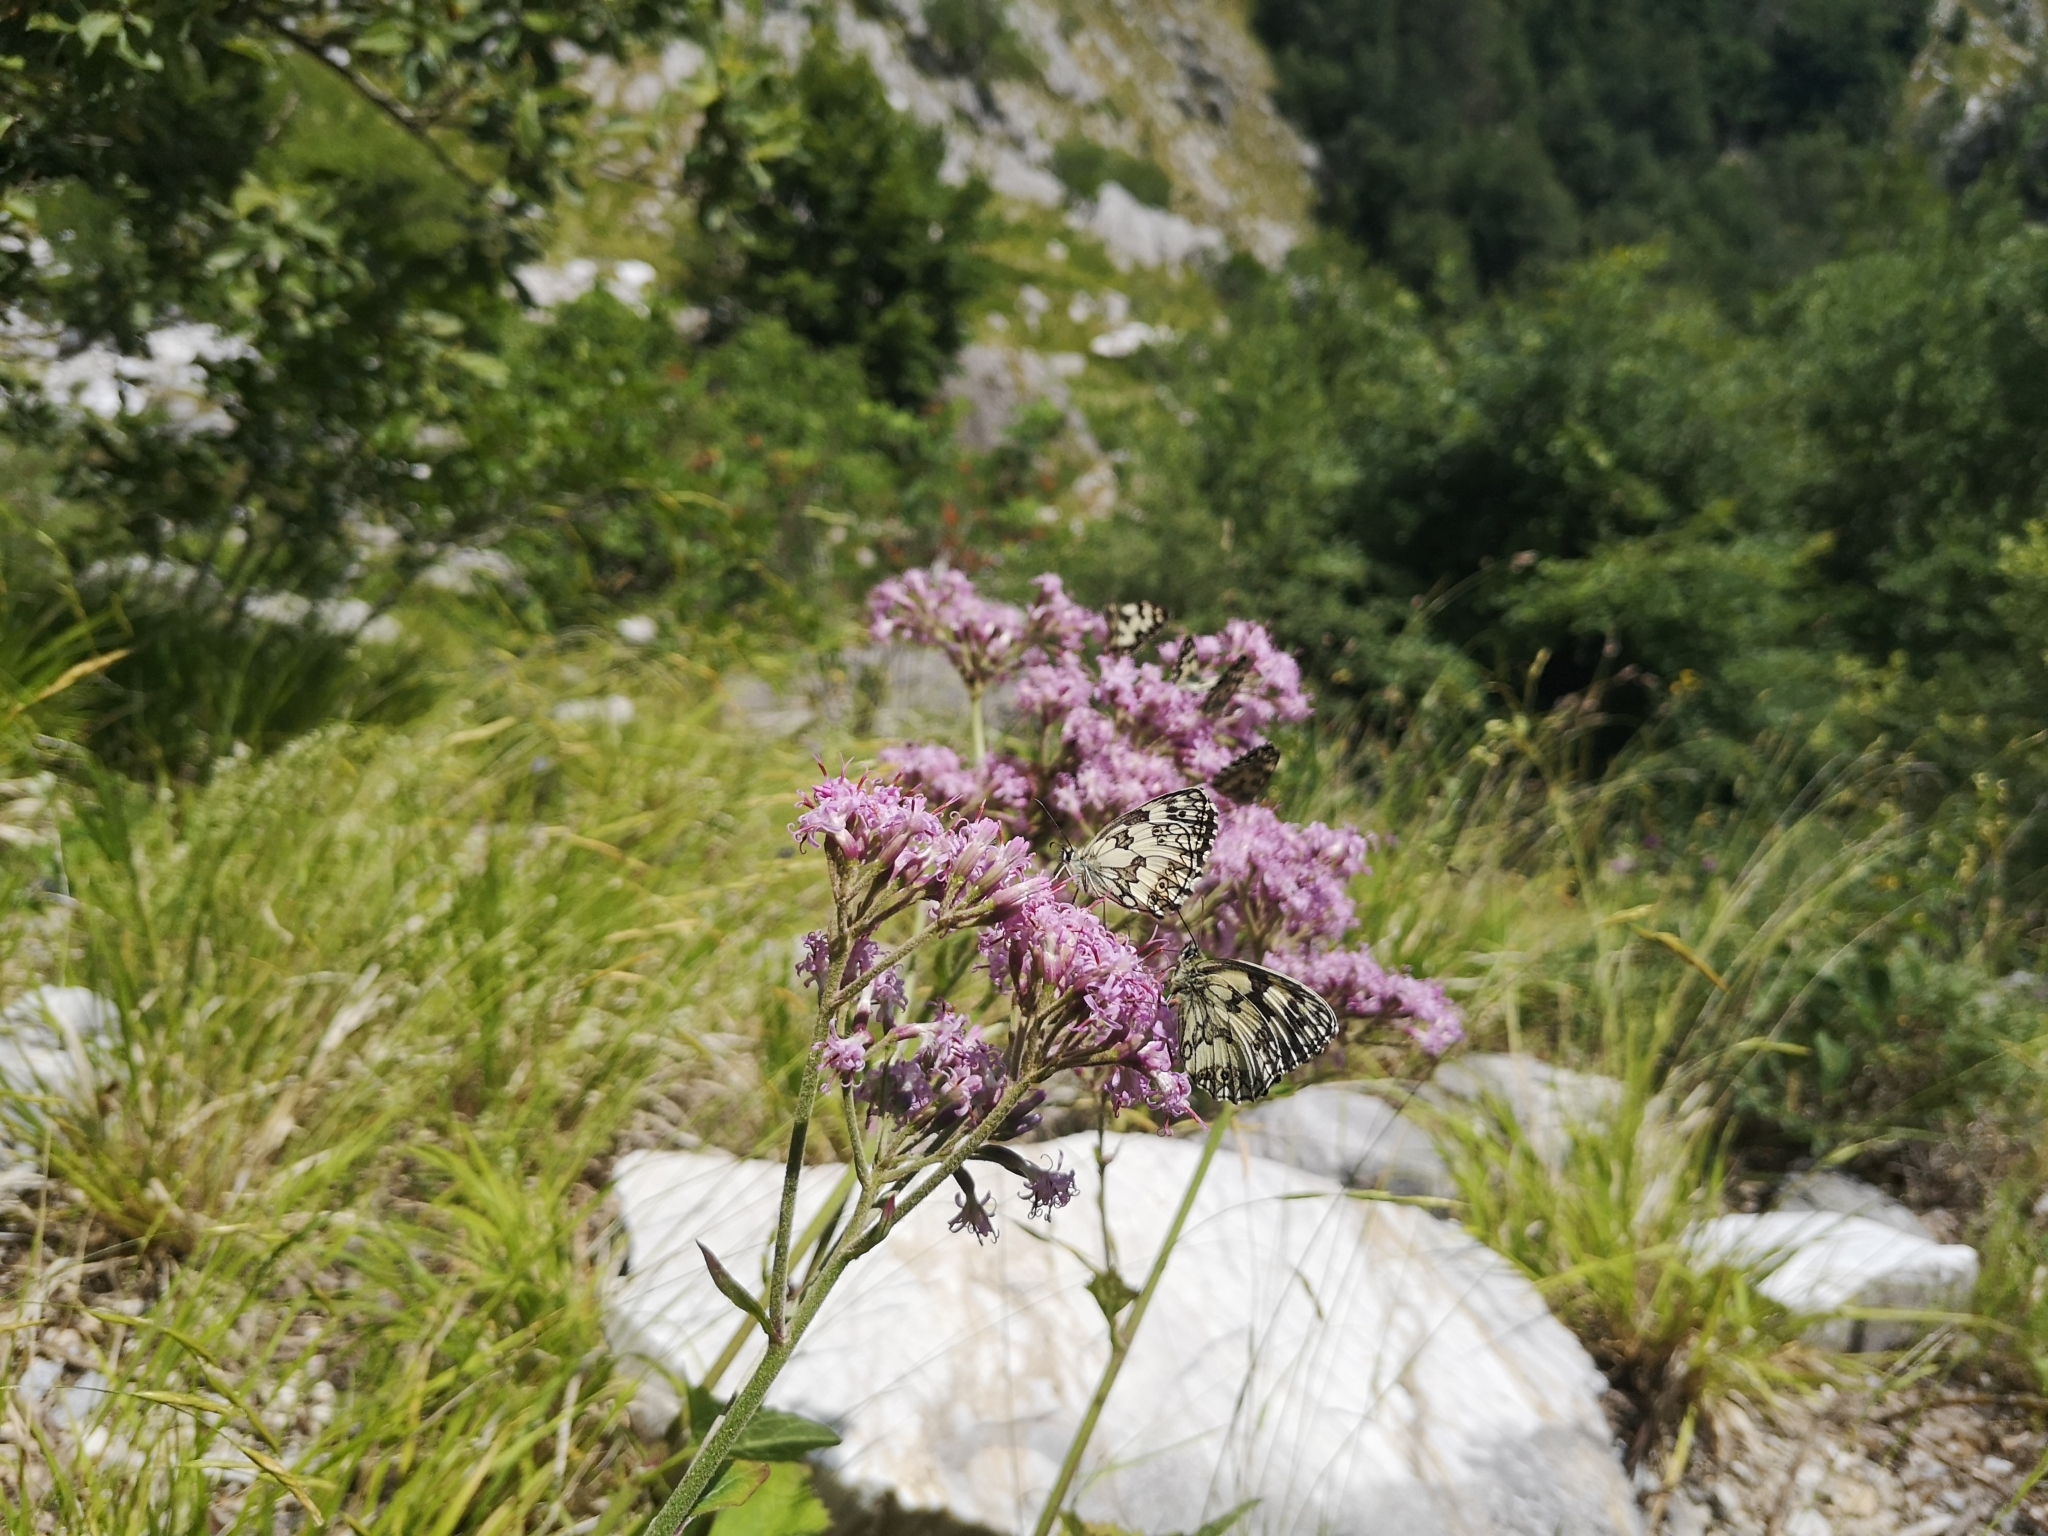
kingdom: Plantae
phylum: Tracheophyta
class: Magnoliopsida
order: Asterales
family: Asteraceae
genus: Adenostyles
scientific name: Adenostyles australis
